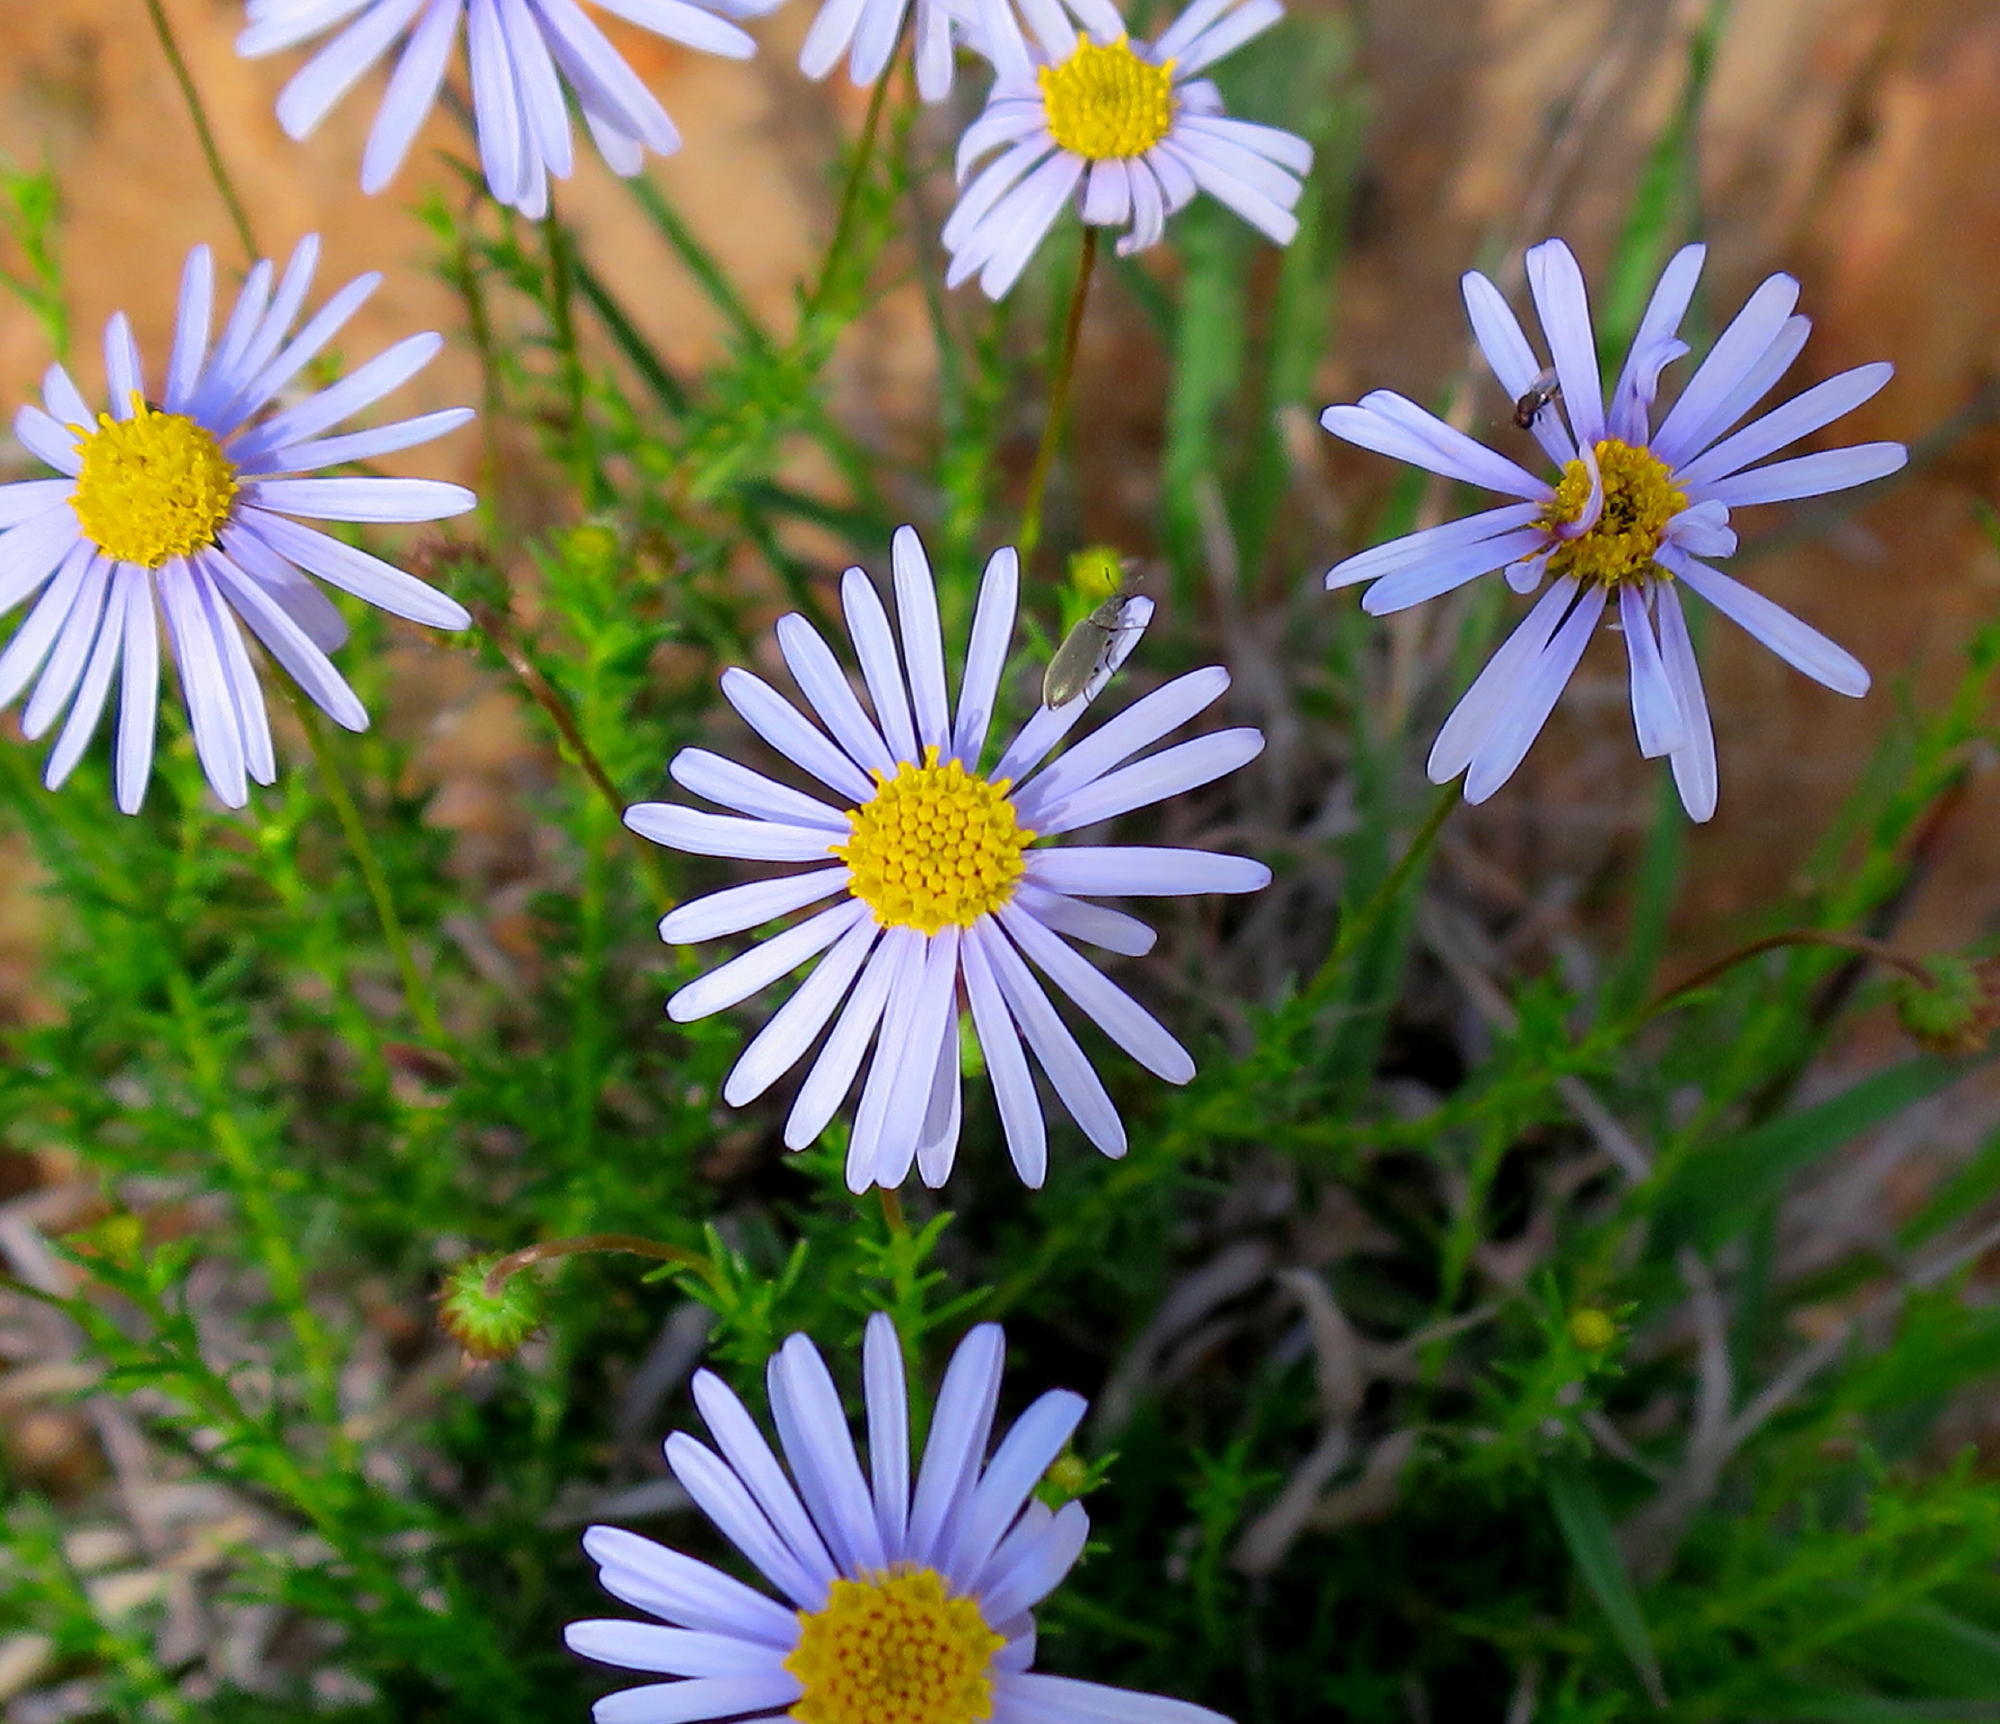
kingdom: Plantae
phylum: Tracheophyta
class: Magnoliopsida
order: Asterales
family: Asteraceae
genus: Felicia
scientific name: Felicia muricata
